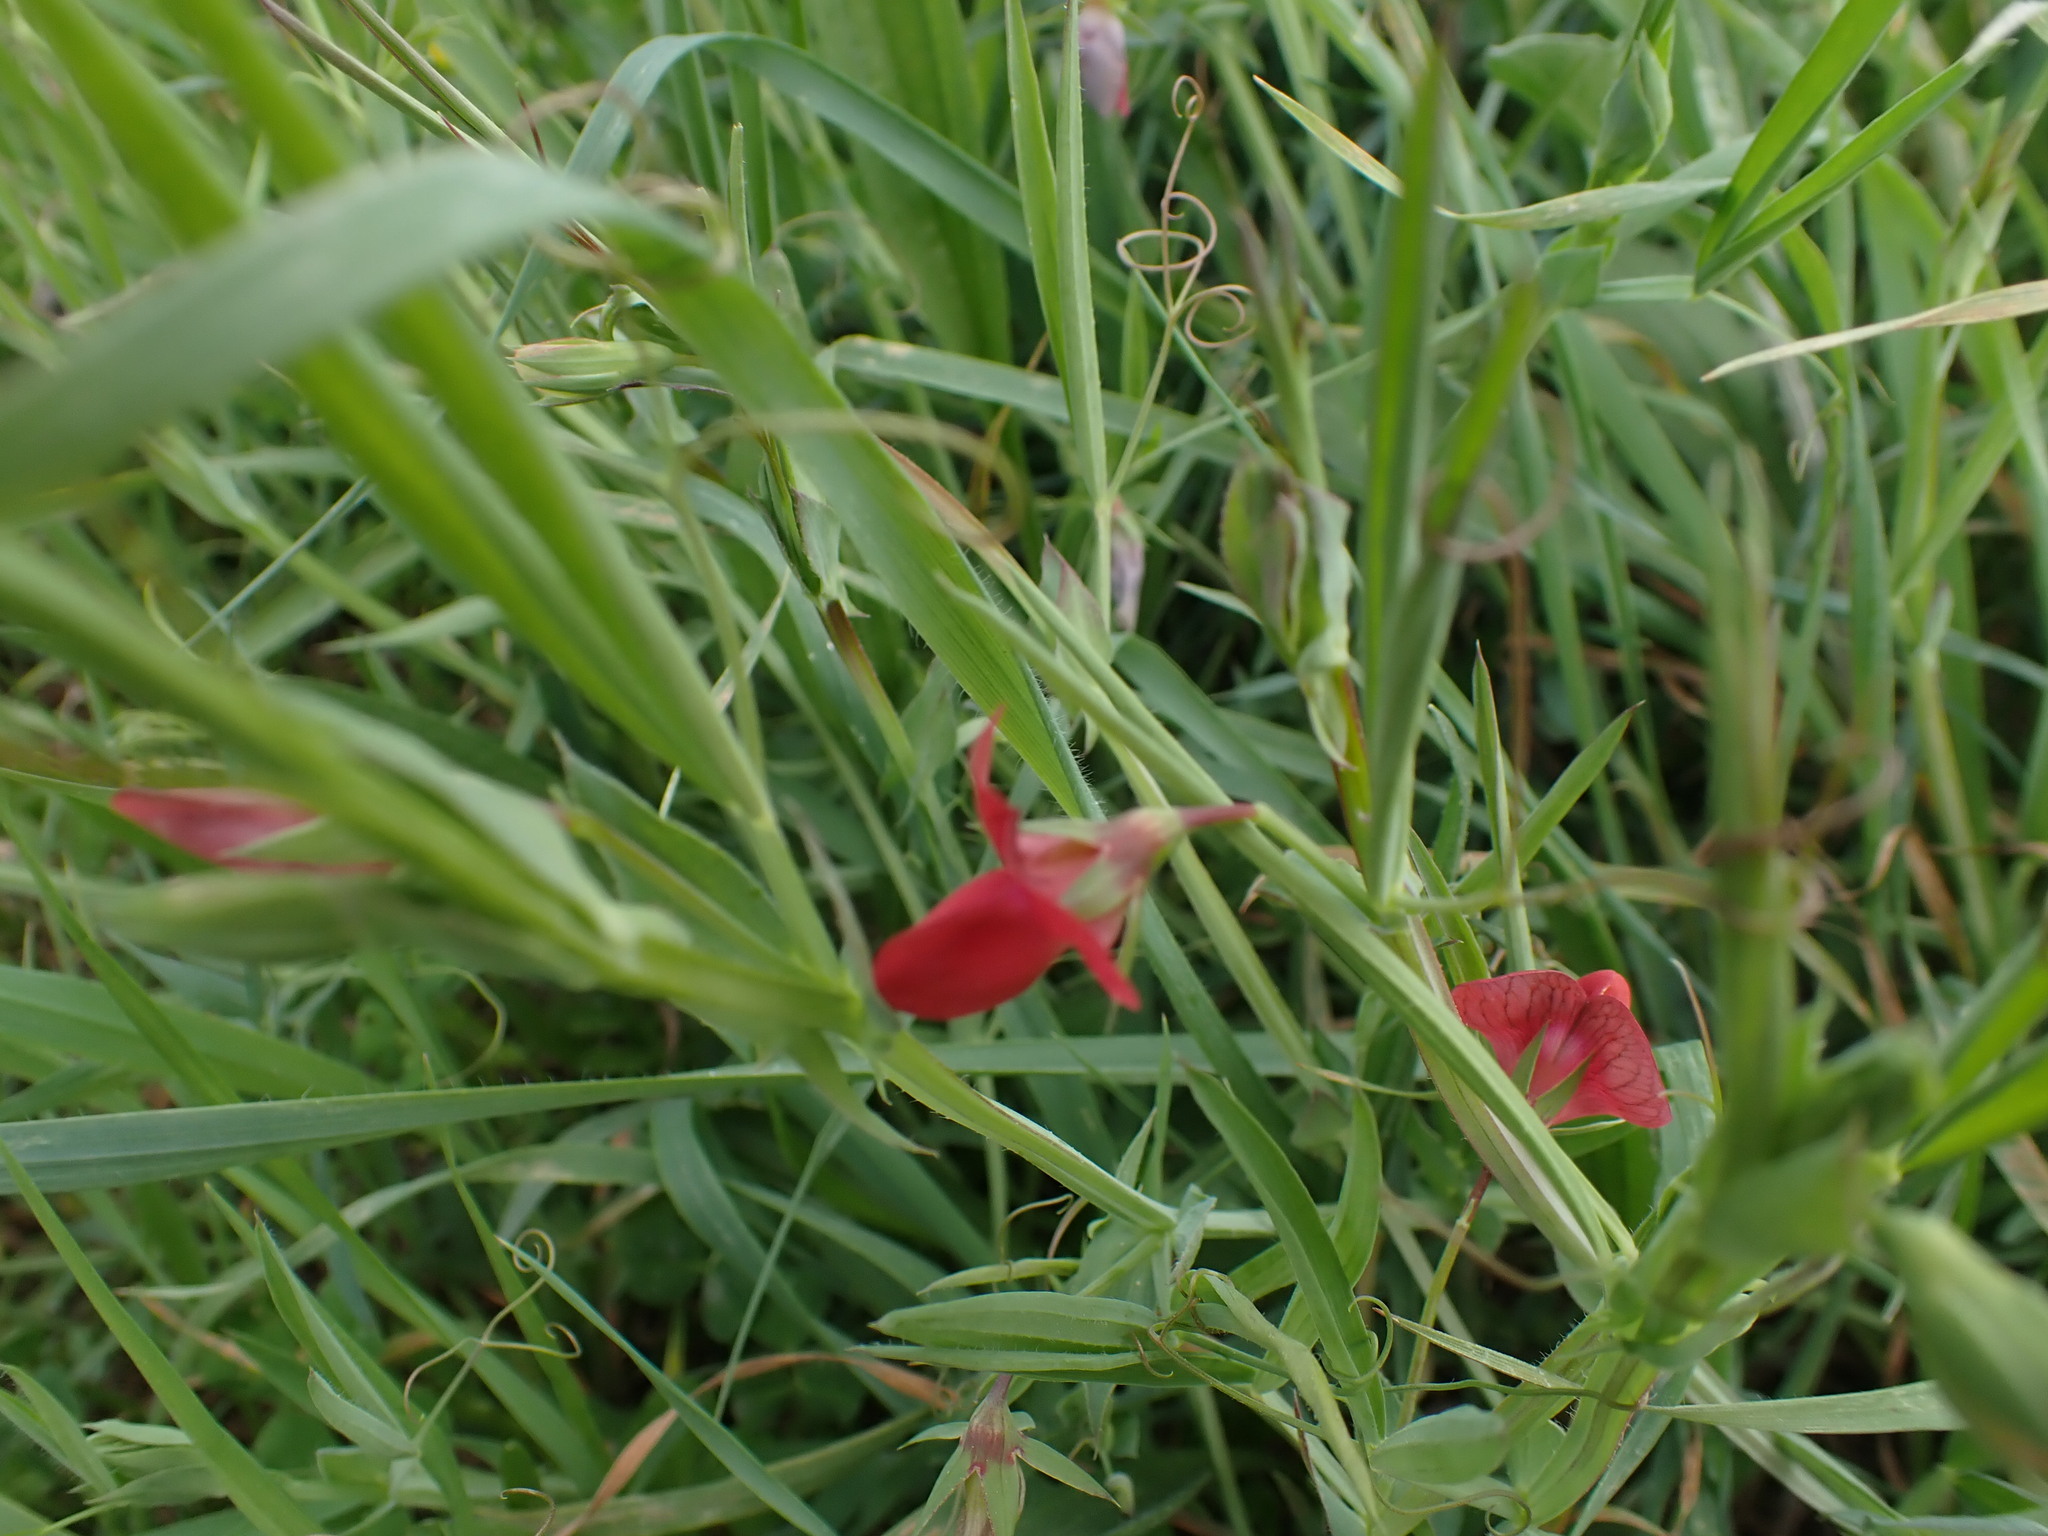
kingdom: Plantae
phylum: Tracheophyta
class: Magnoliopsida
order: Fabales
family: Fabaceae
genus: Lathyrus
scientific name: Lathyrus cicera
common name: Red vetchling
